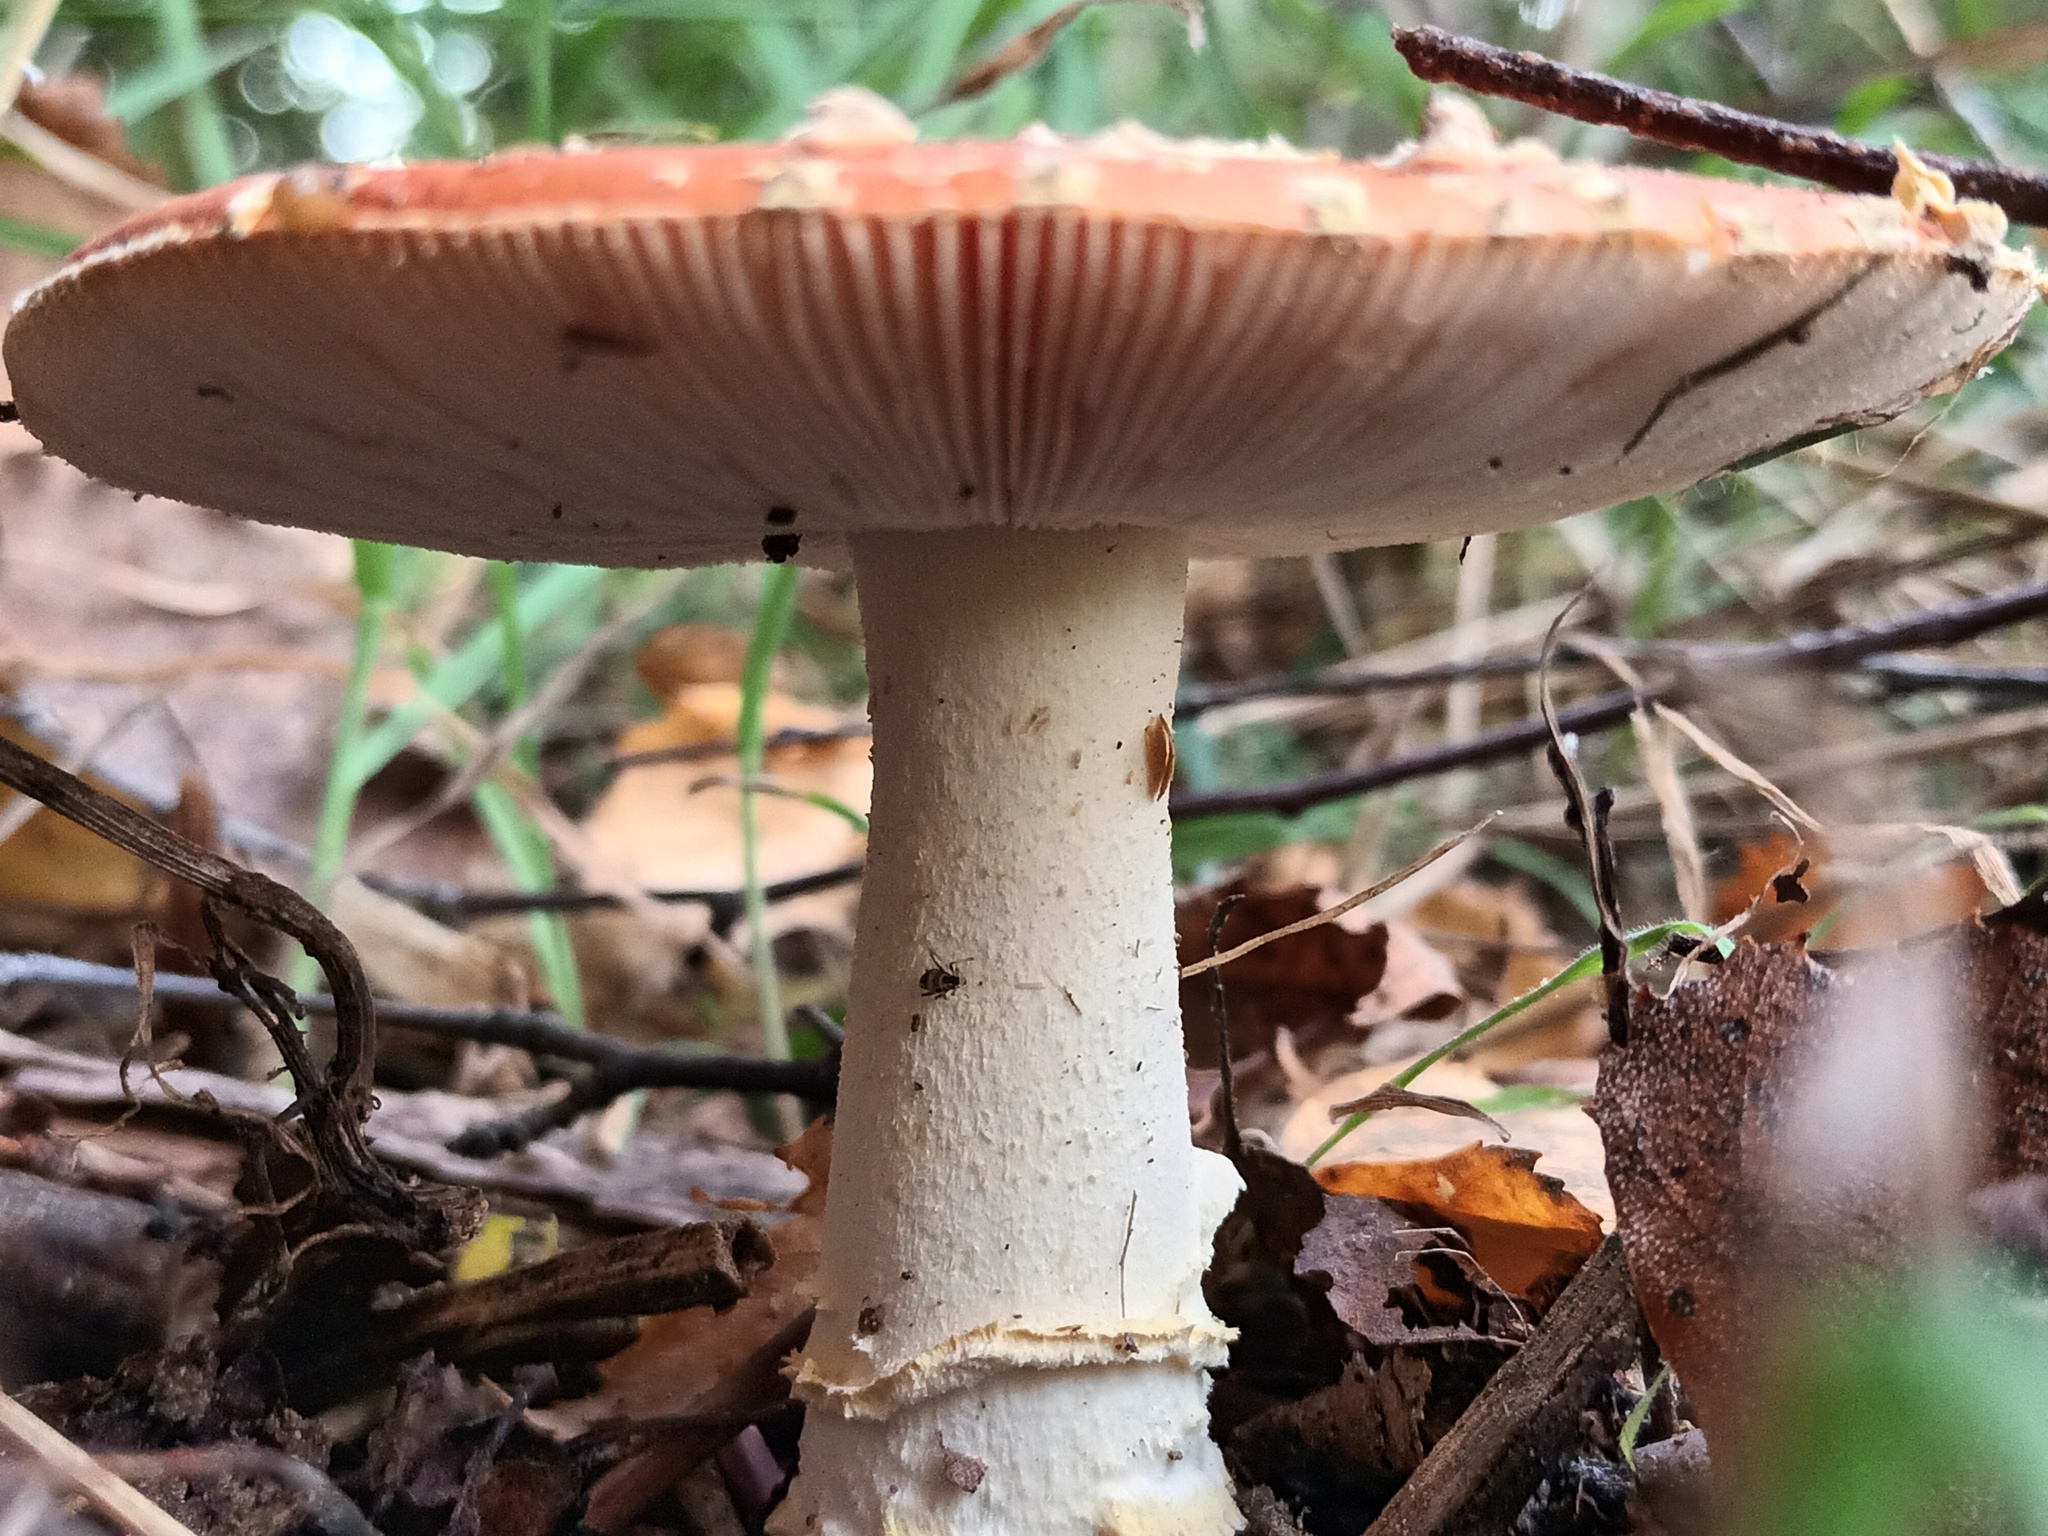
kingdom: Fungi
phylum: Basidiomycota
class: Agaricomycetes
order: Agaricales
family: Amanitaceae
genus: Amanita
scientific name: Amanita muscaria
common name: Fly agaric
